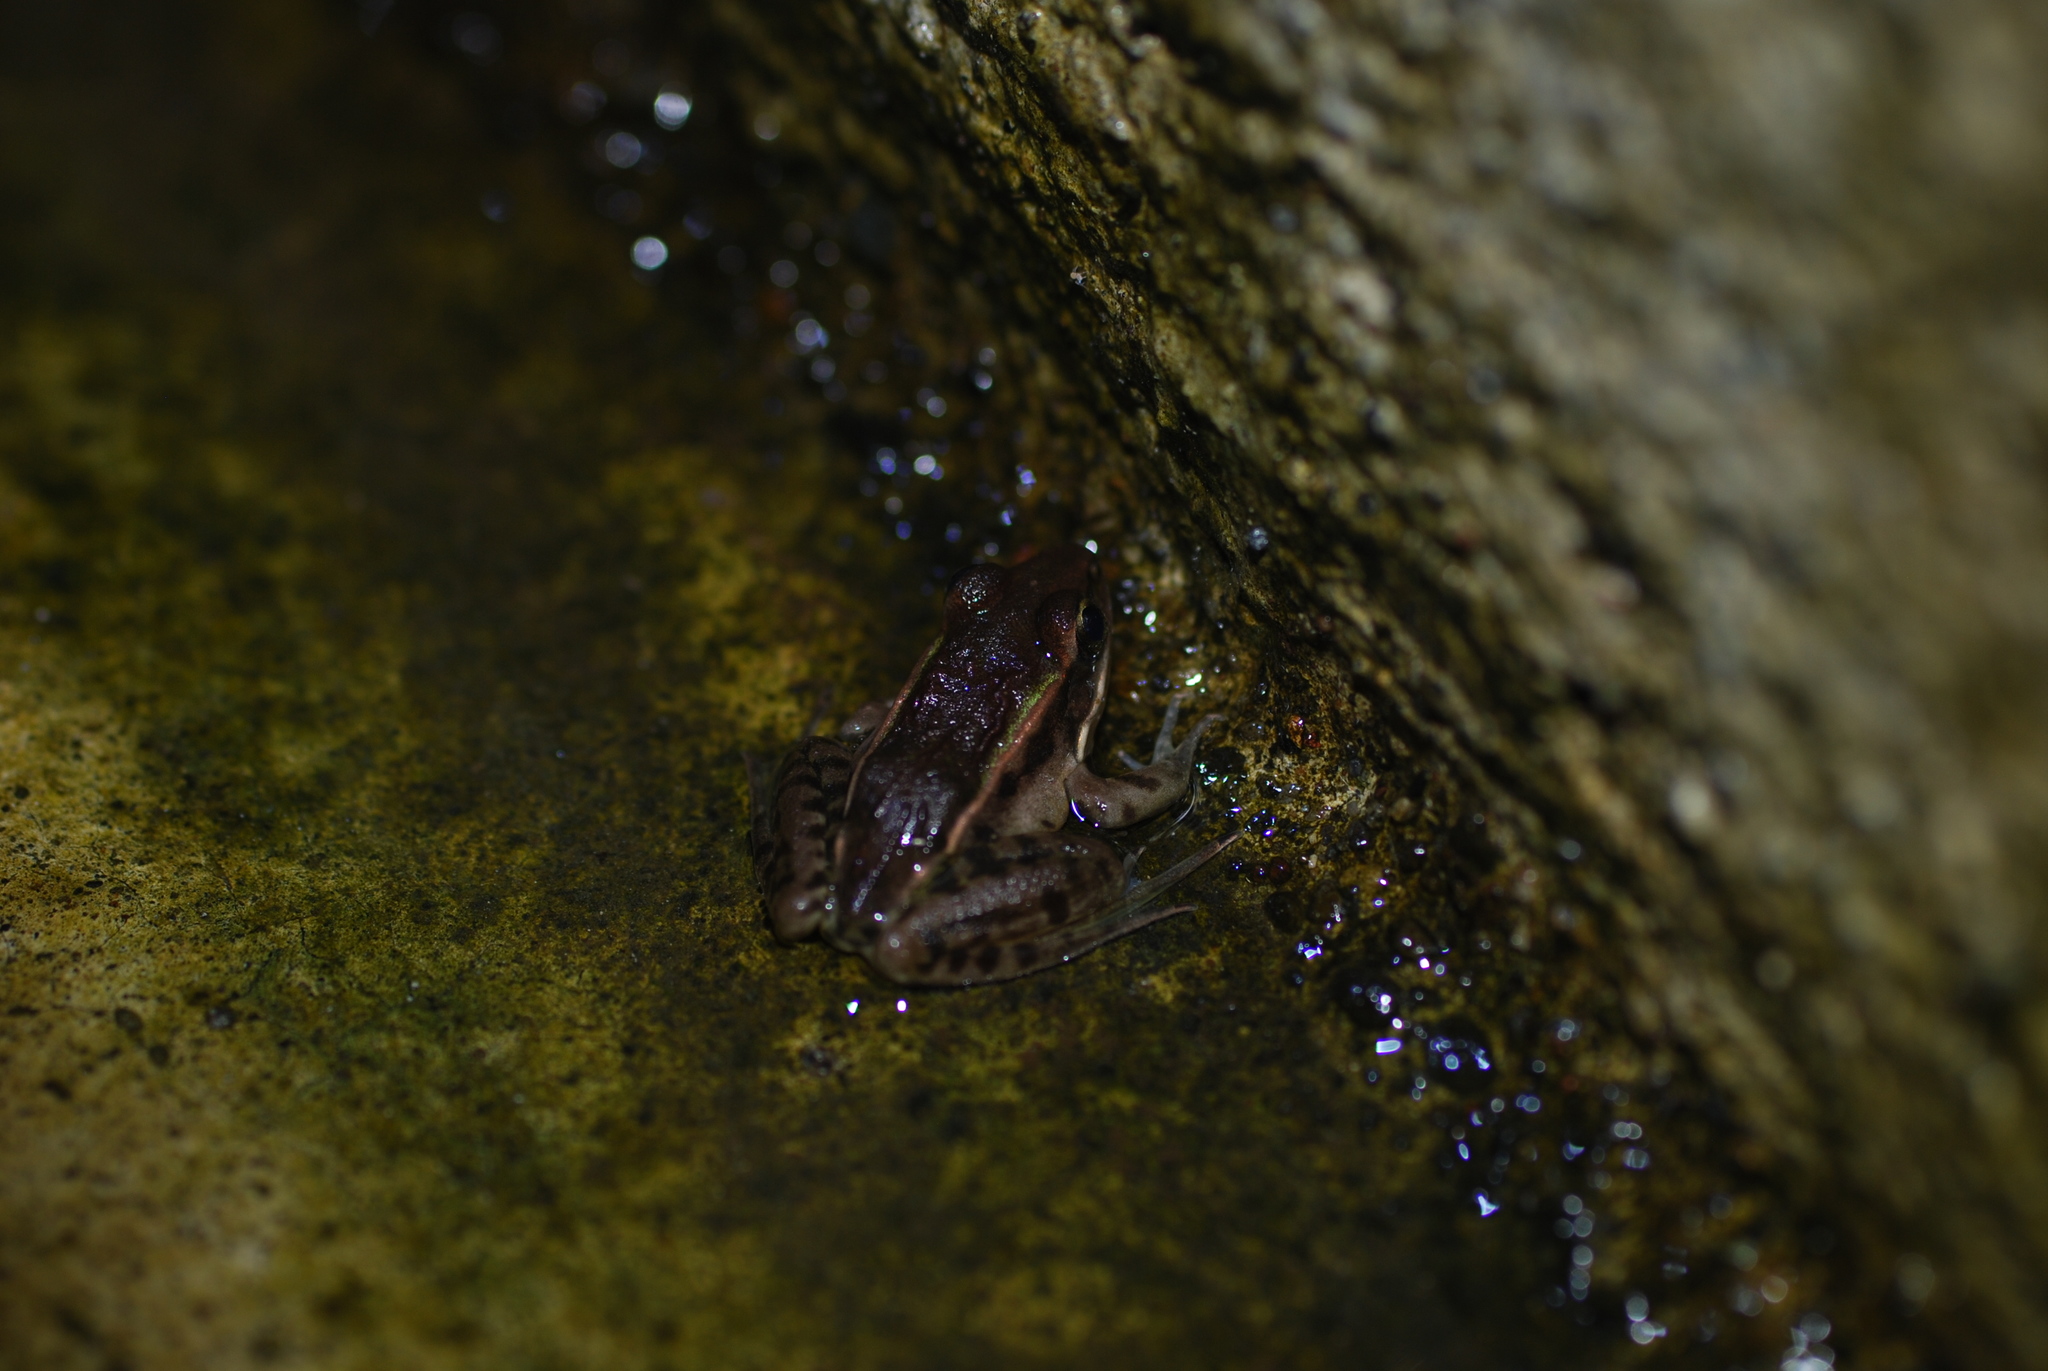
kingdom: Animalia
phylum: Chordata
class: Amphibia
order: Anura
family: Ranidae
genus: Lithobates
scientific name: Lithobates taylori
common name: Peralta frog
